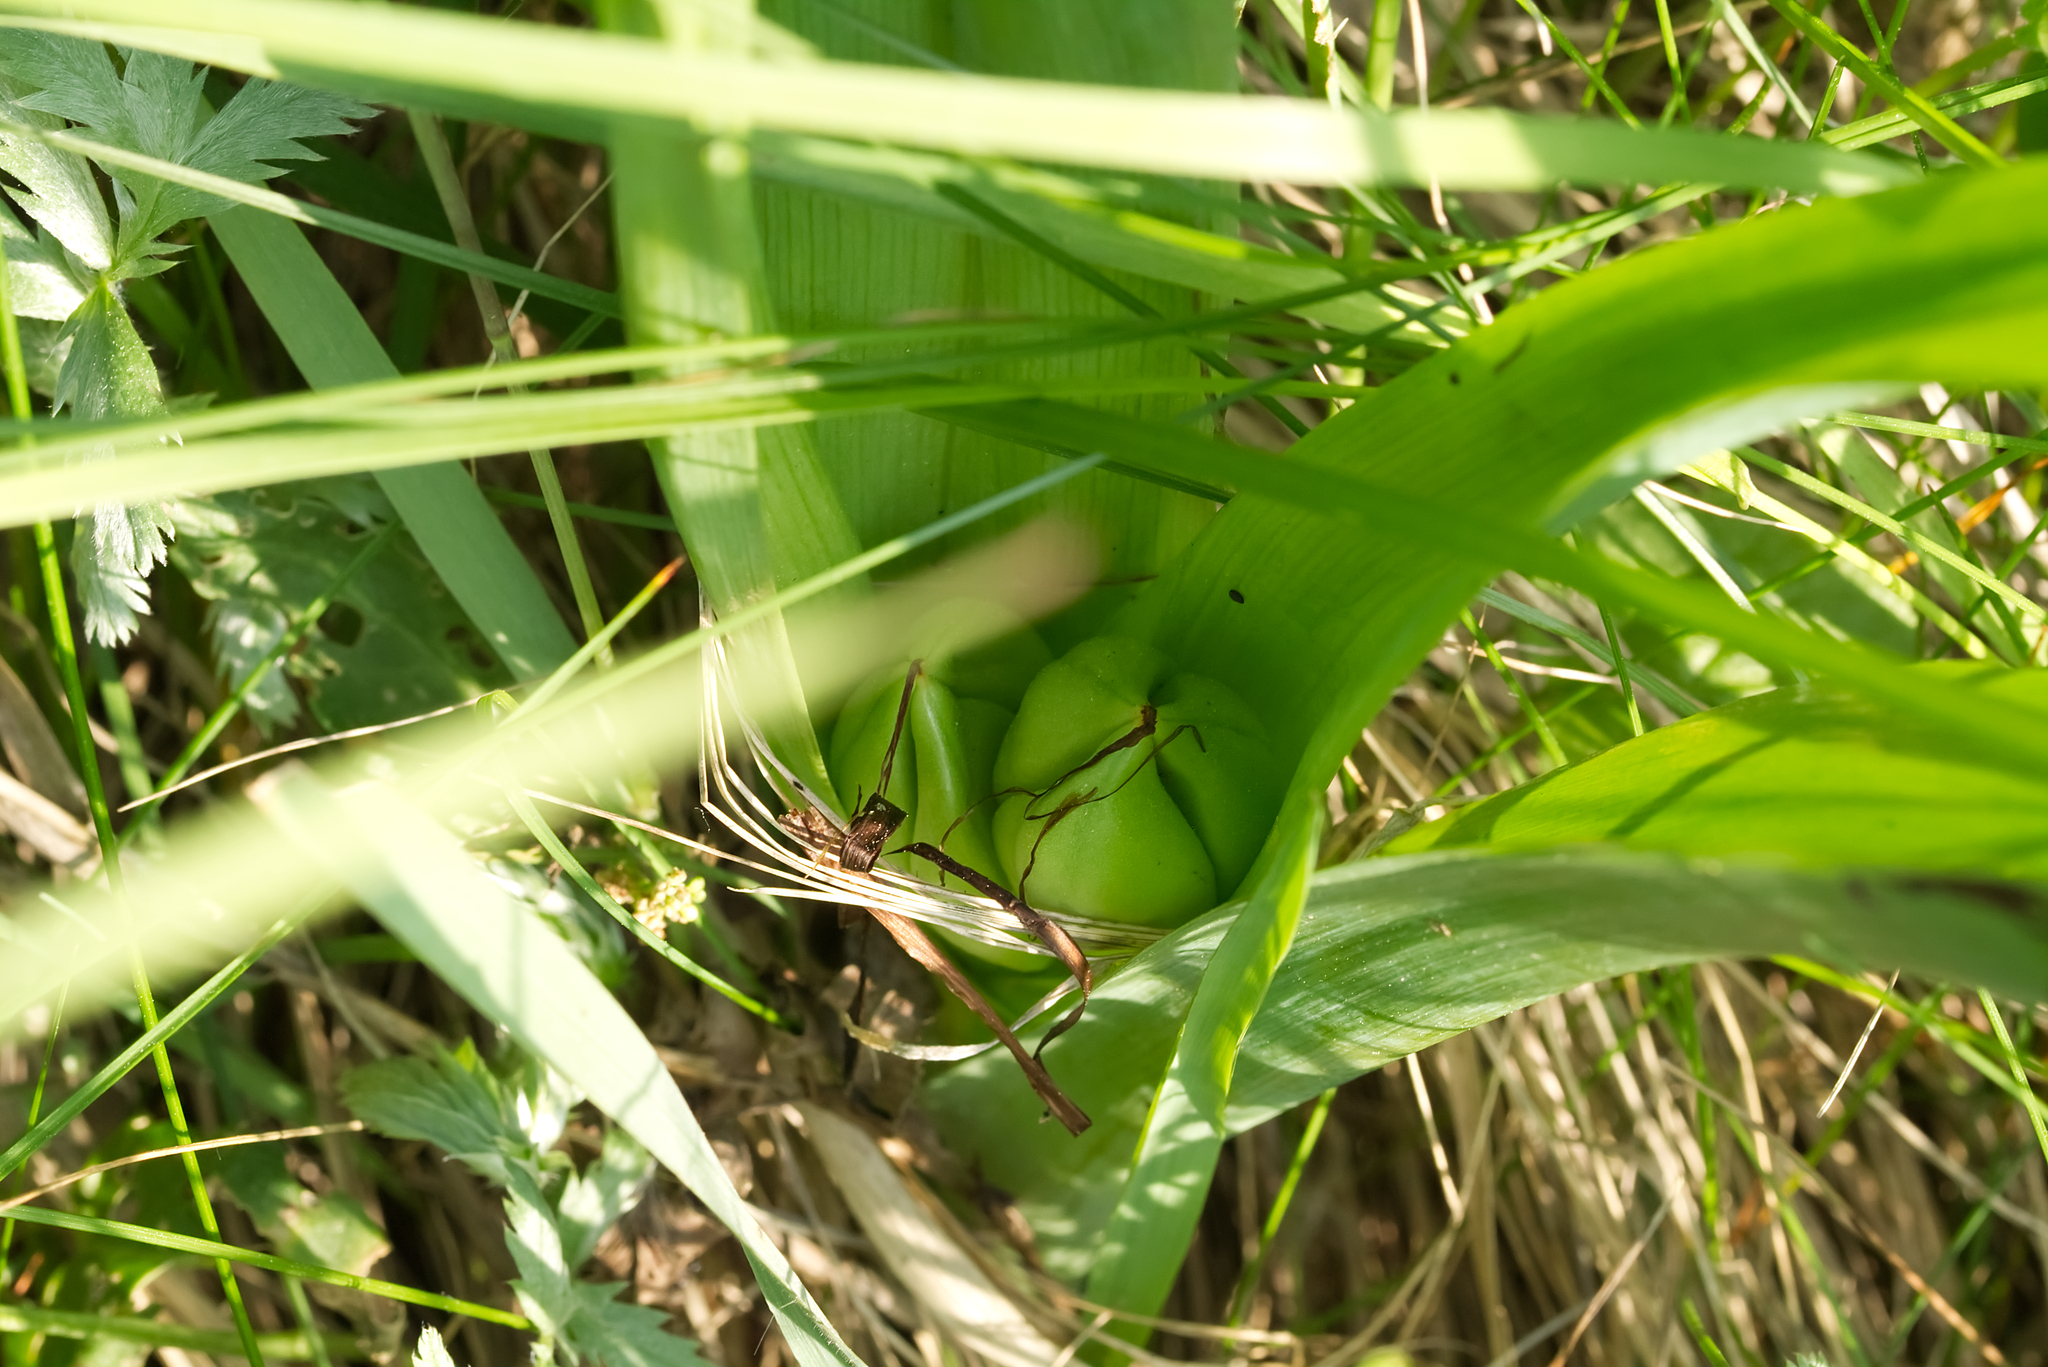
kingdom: Plantae
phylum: Tracheophyta
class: Liliopsida
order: Liliales
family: Colchicaceae
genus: Colchicum
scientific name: Colchicum autumnale
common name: Autumn crocus
